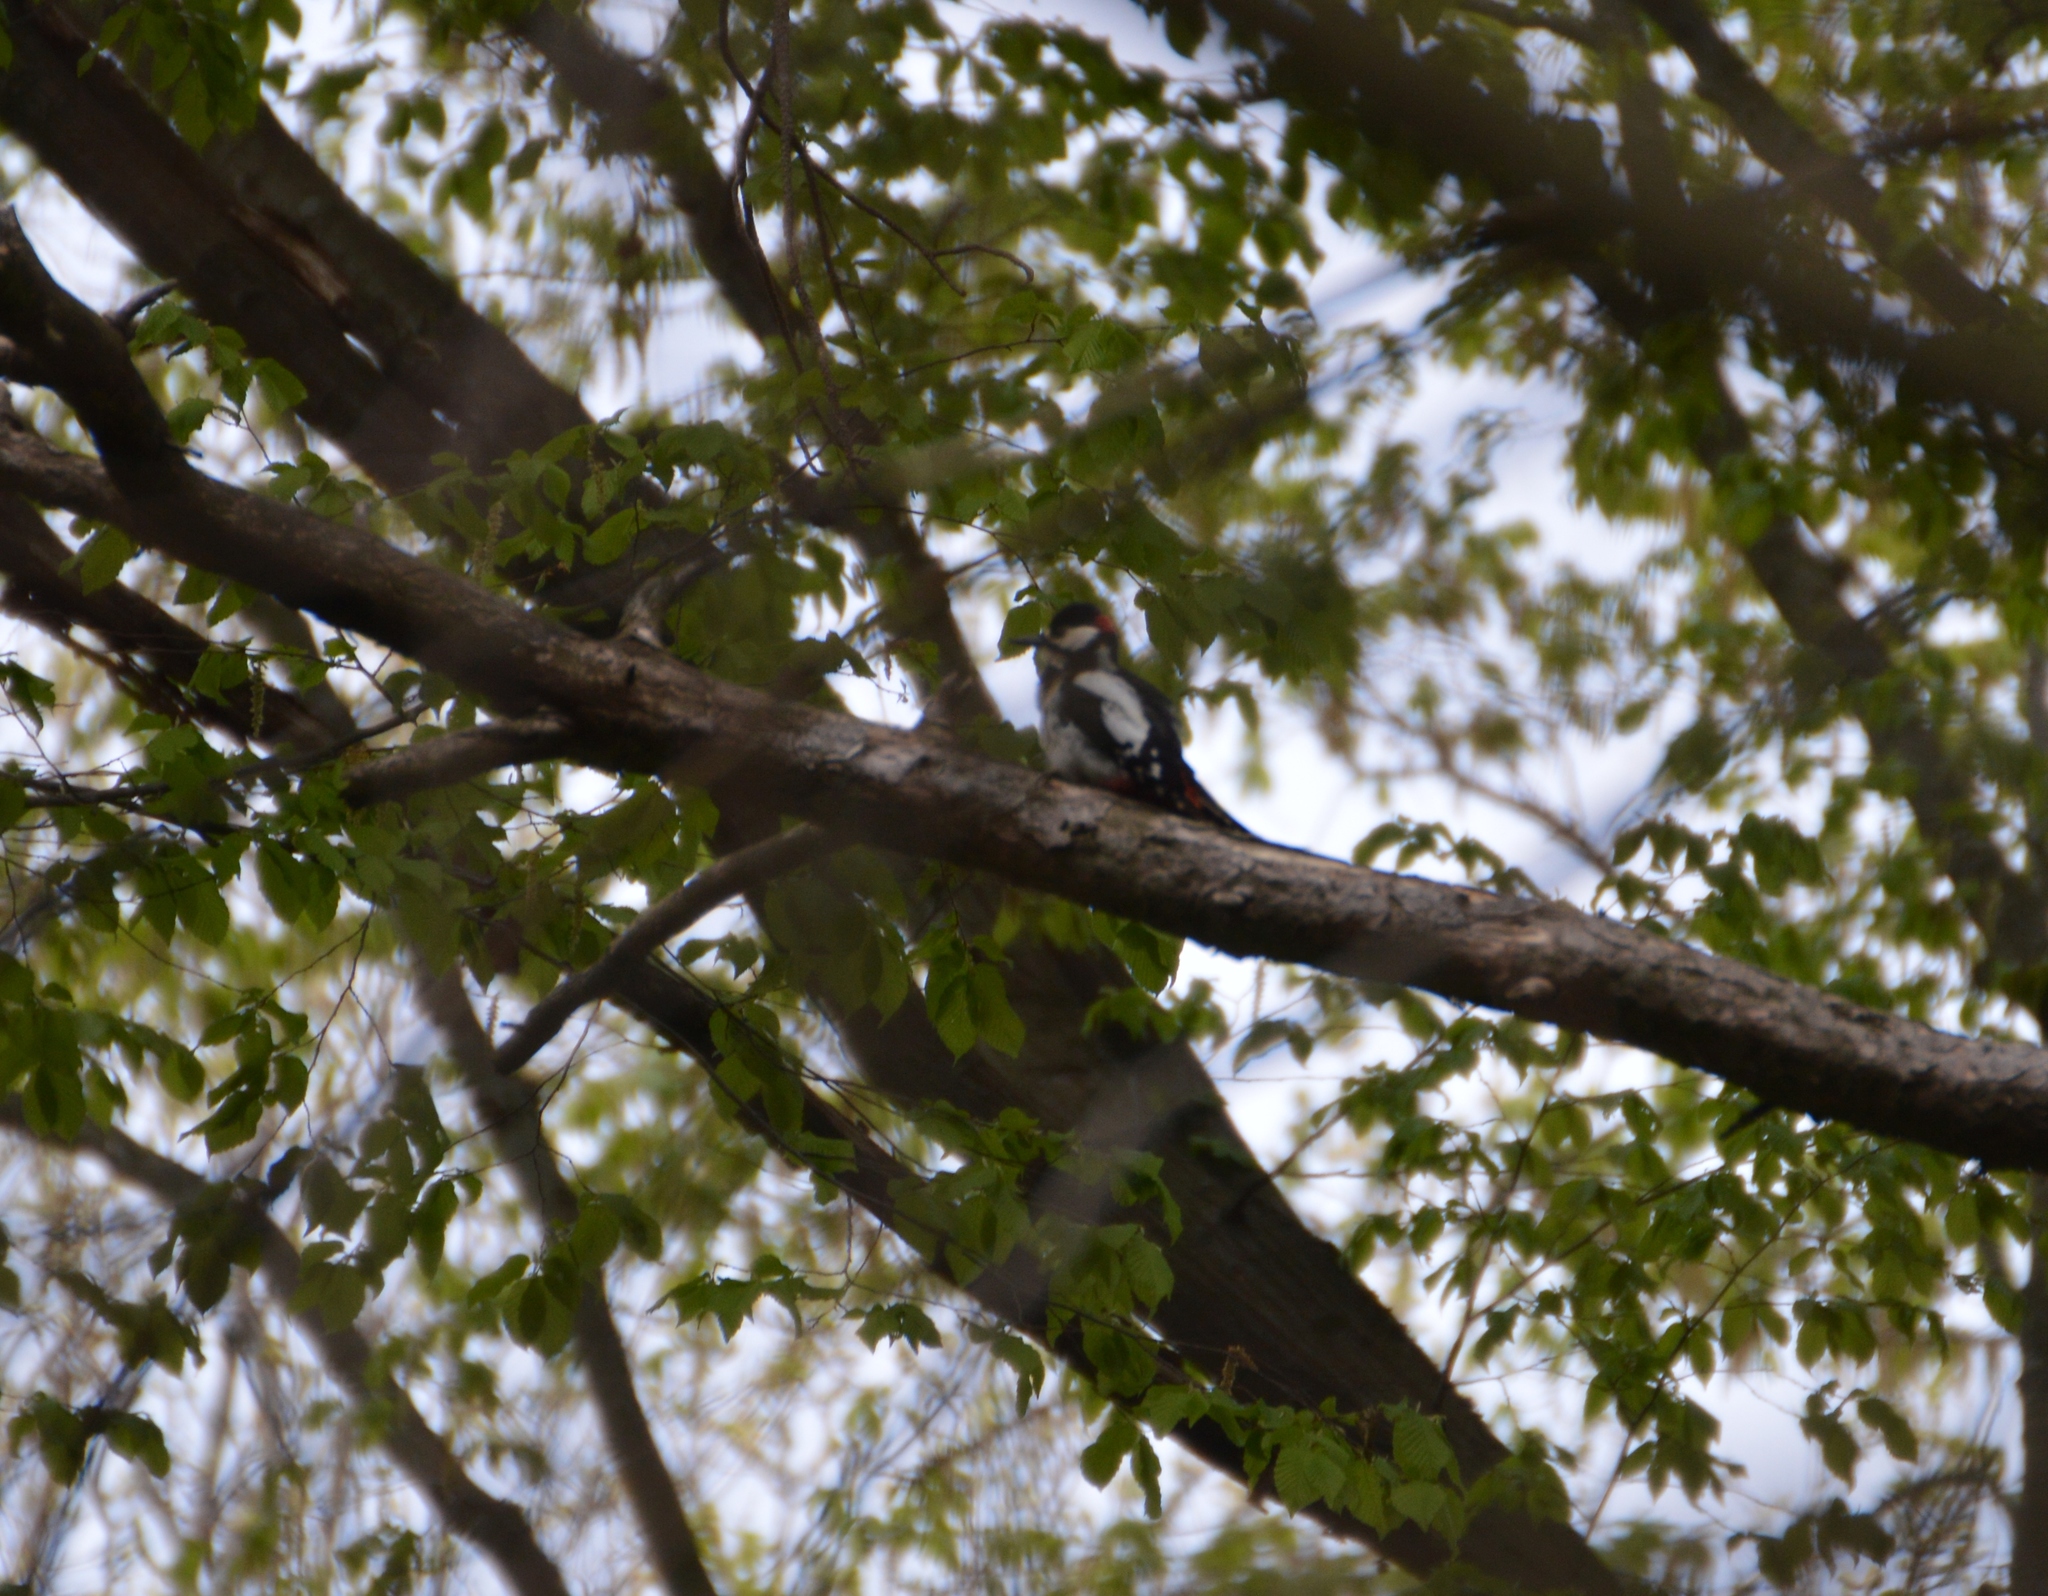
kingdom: Animalia
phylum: Chordata
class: Aves
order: Piciformes
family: Picidae
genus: Dendrocopos
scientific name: Dendrocopos major
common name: Great spotted woodpecker
